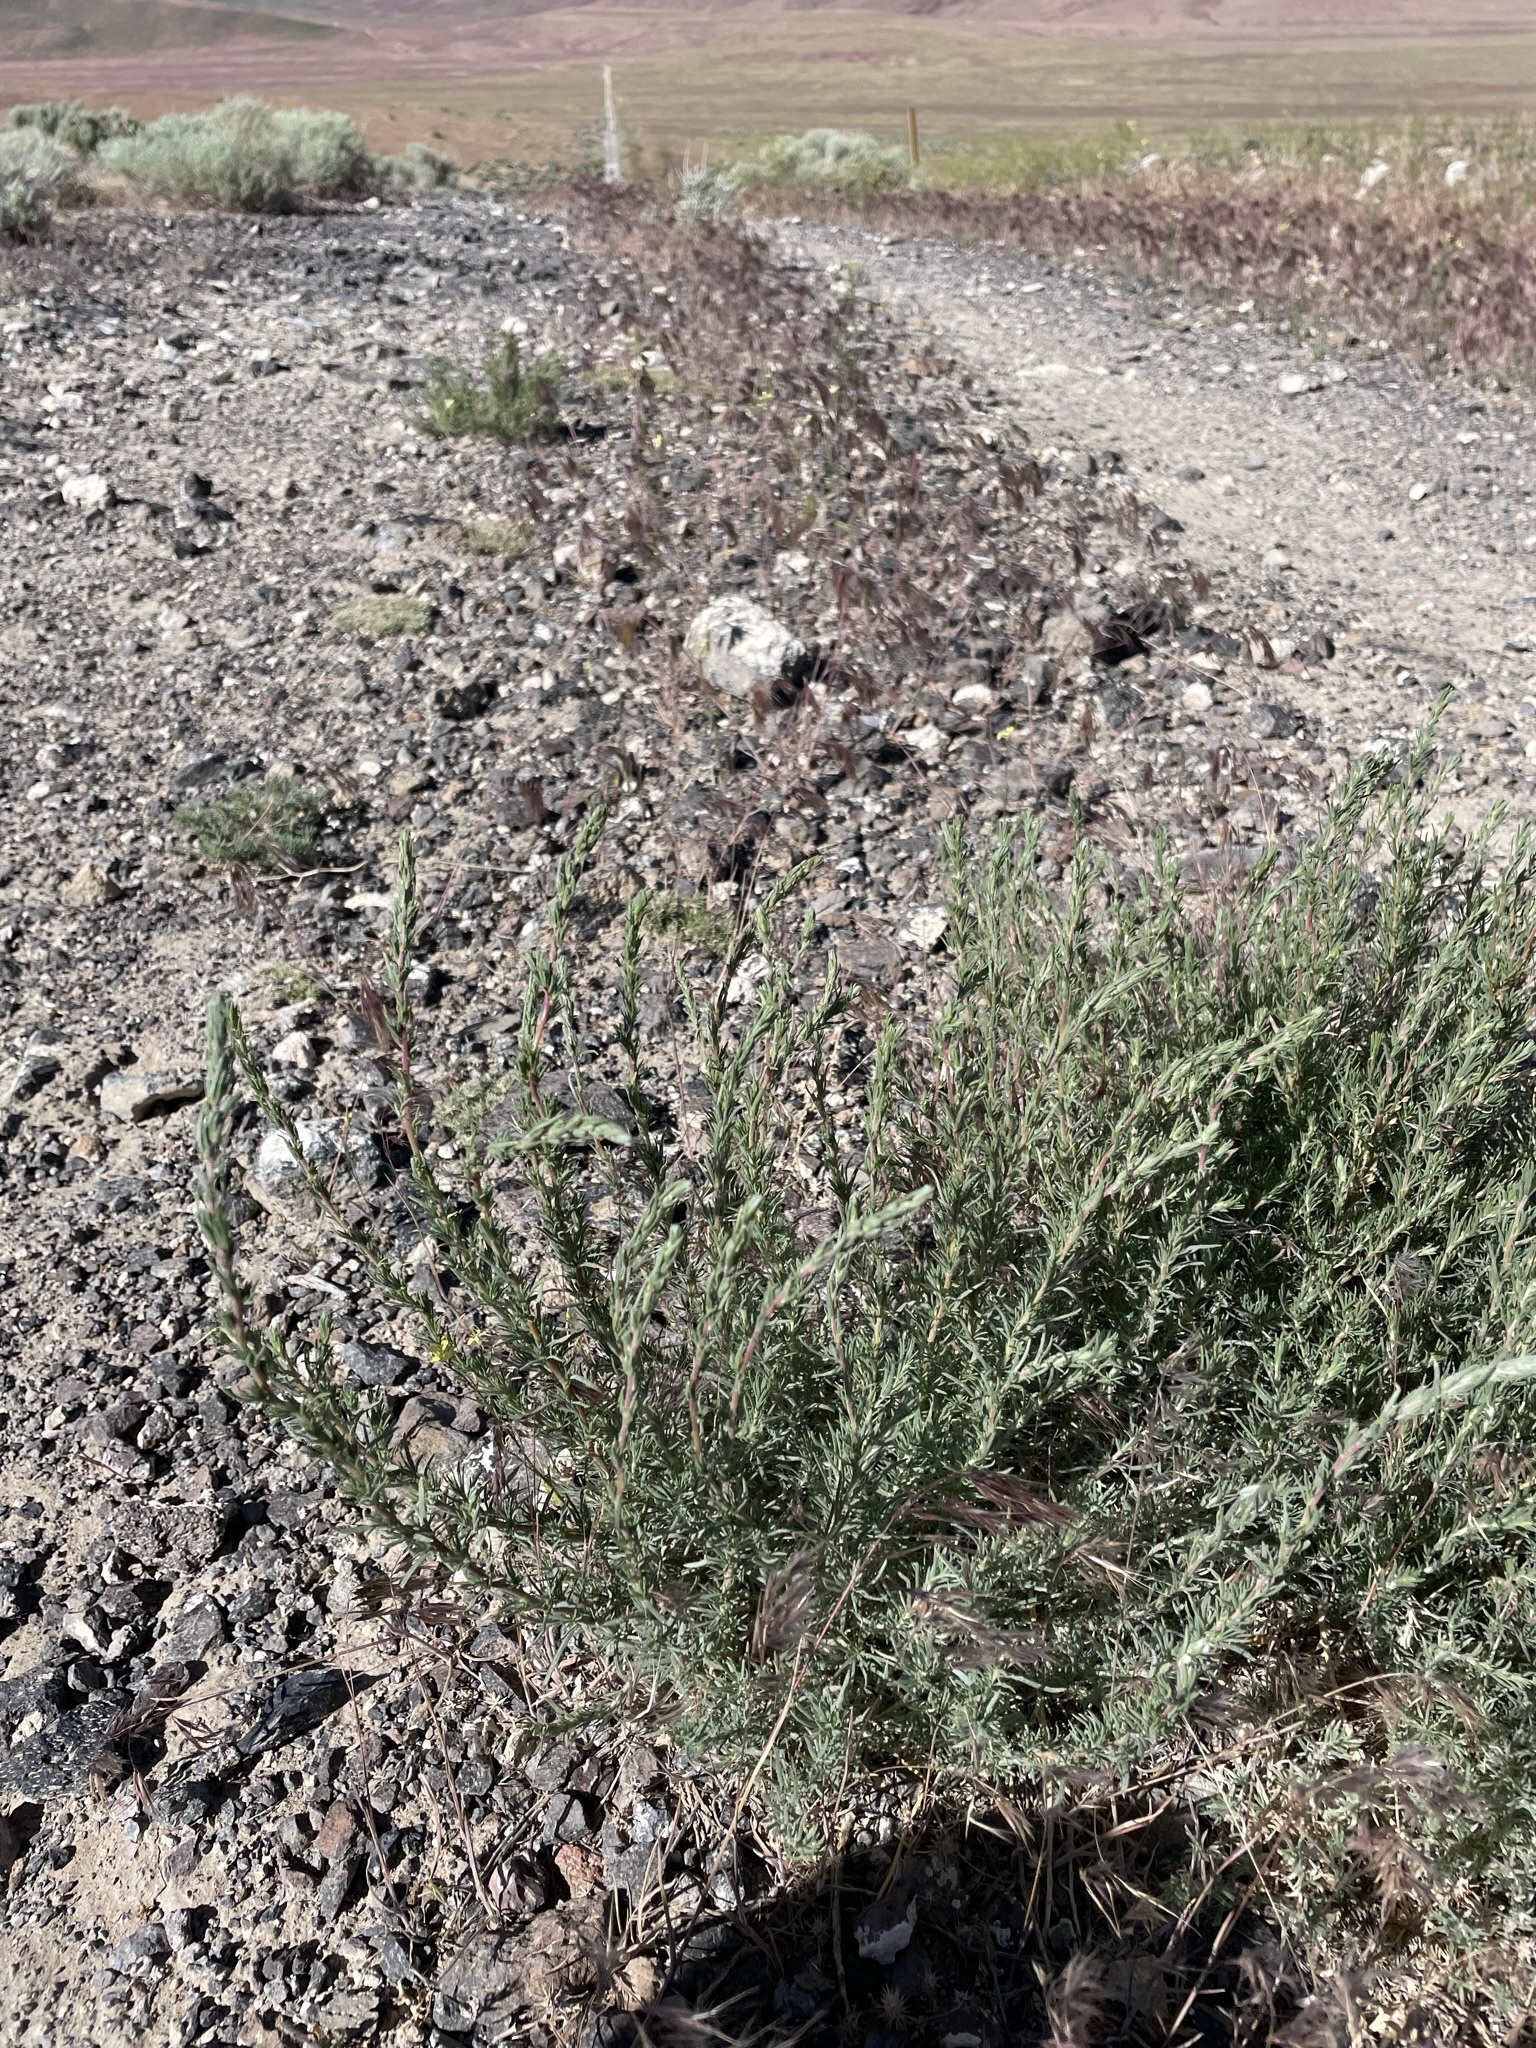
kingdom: Plantae
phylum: Tracheophyta
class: Magnoliopsida
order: Caryophyllales
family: Amaranthaceae
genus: Bassia
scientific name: Bassia prostrata
